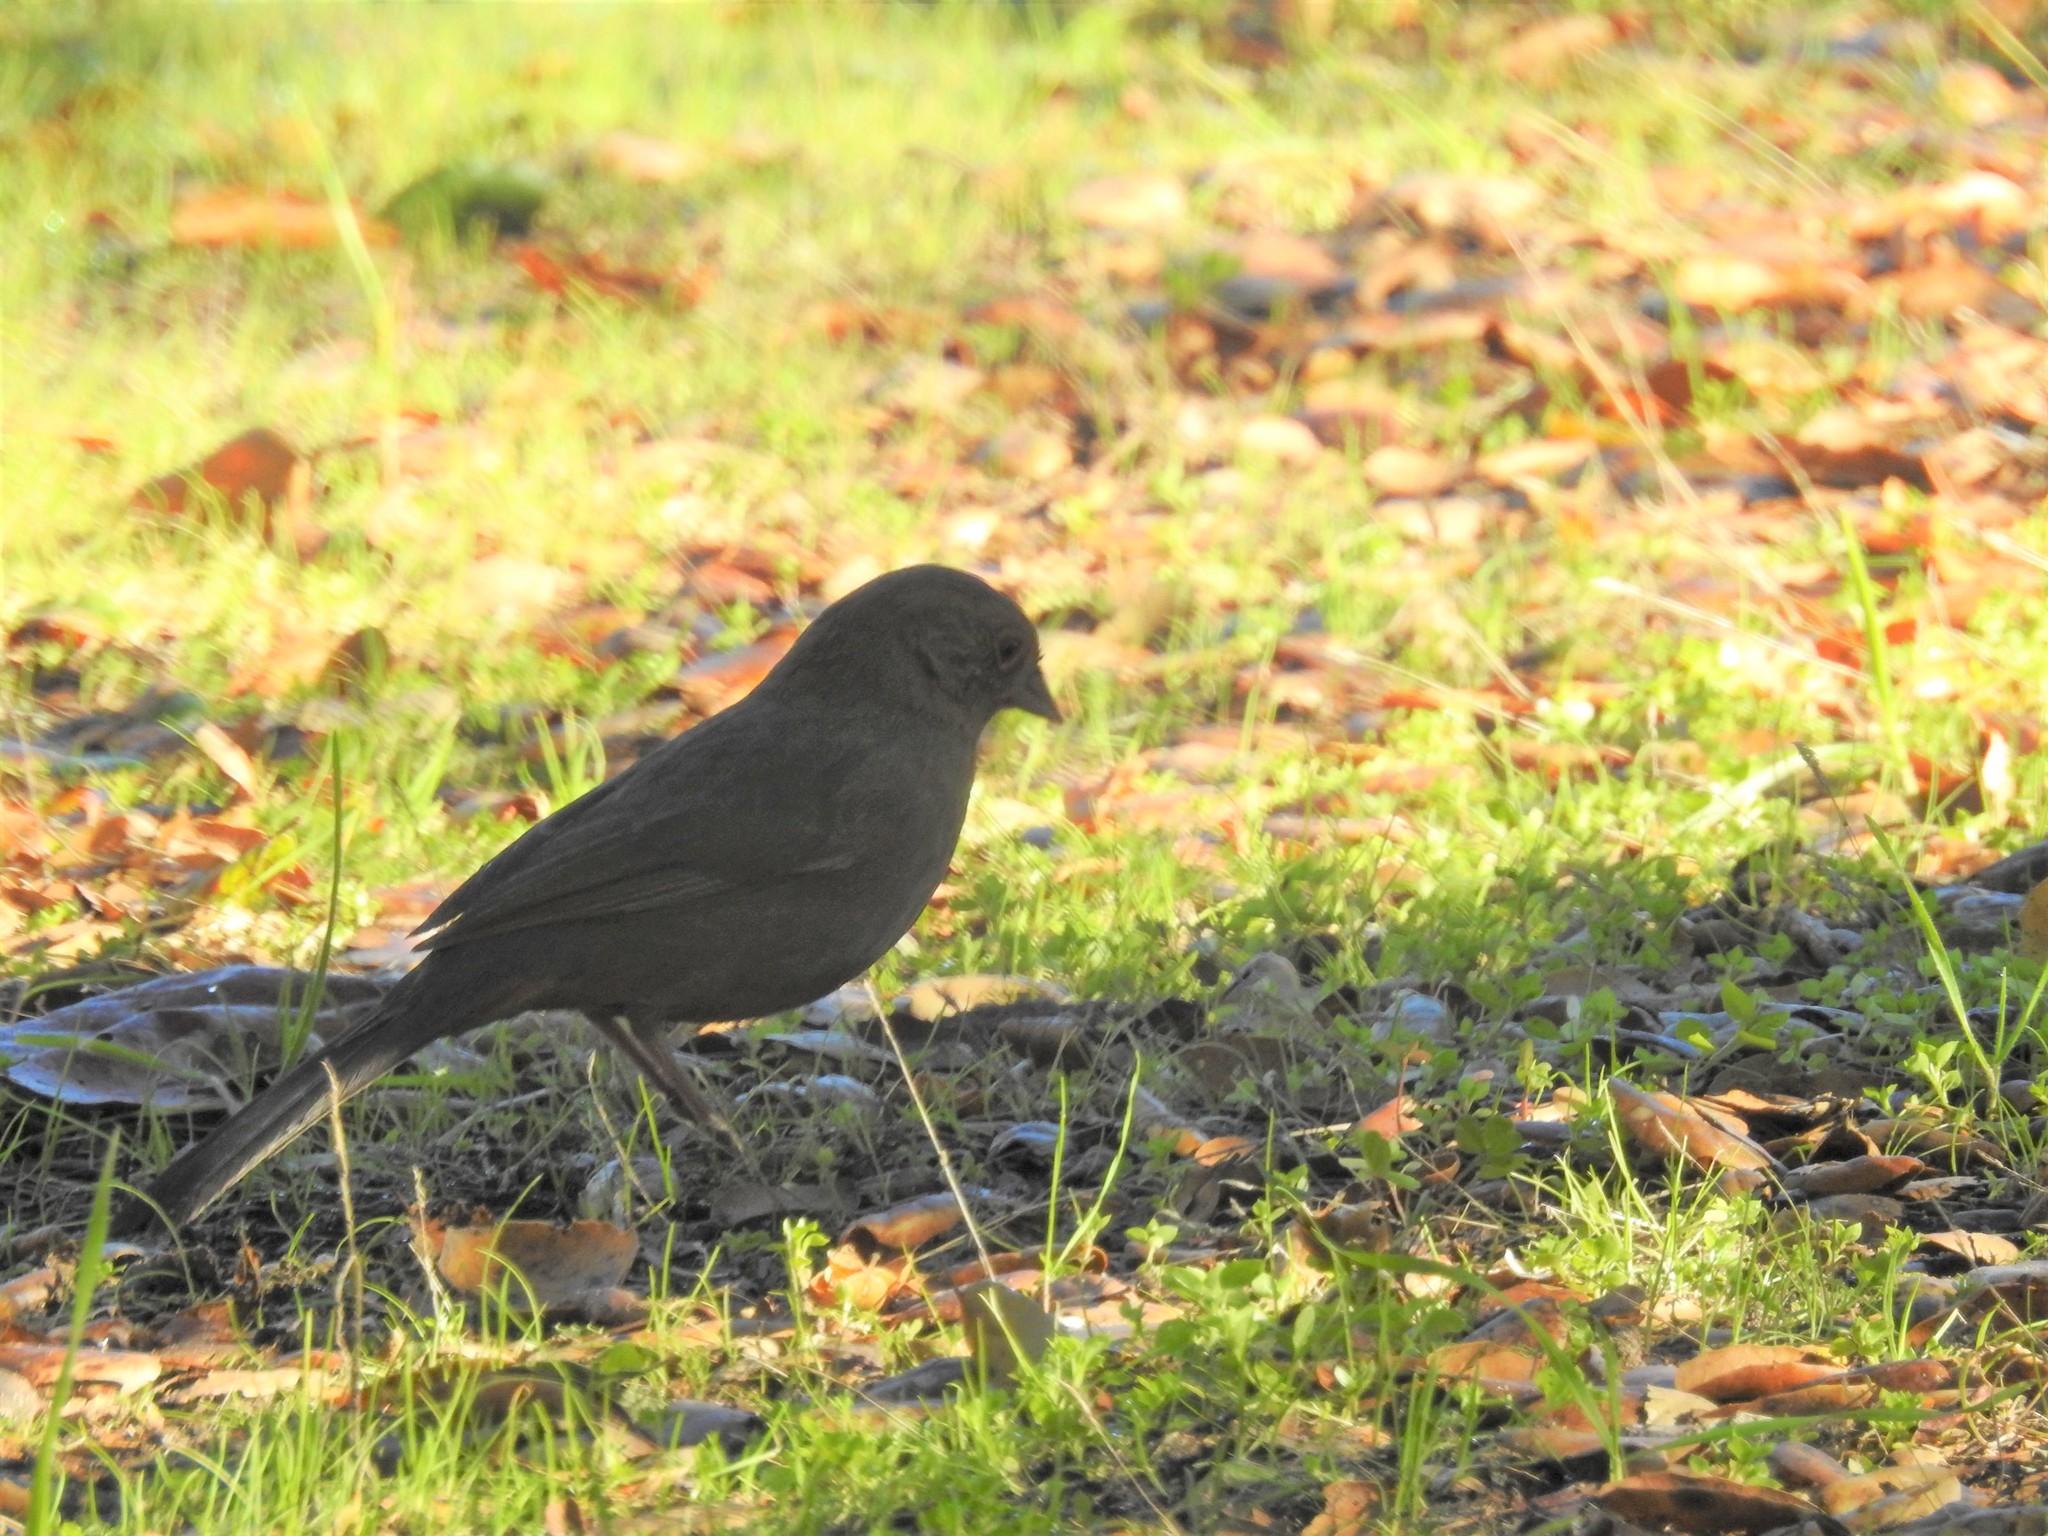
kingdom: Animalia
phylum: Chordata
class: Aves
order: Passeriformes
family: Passerellidae
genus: Melozone
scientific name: Melozone crissalis
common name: California towhee
